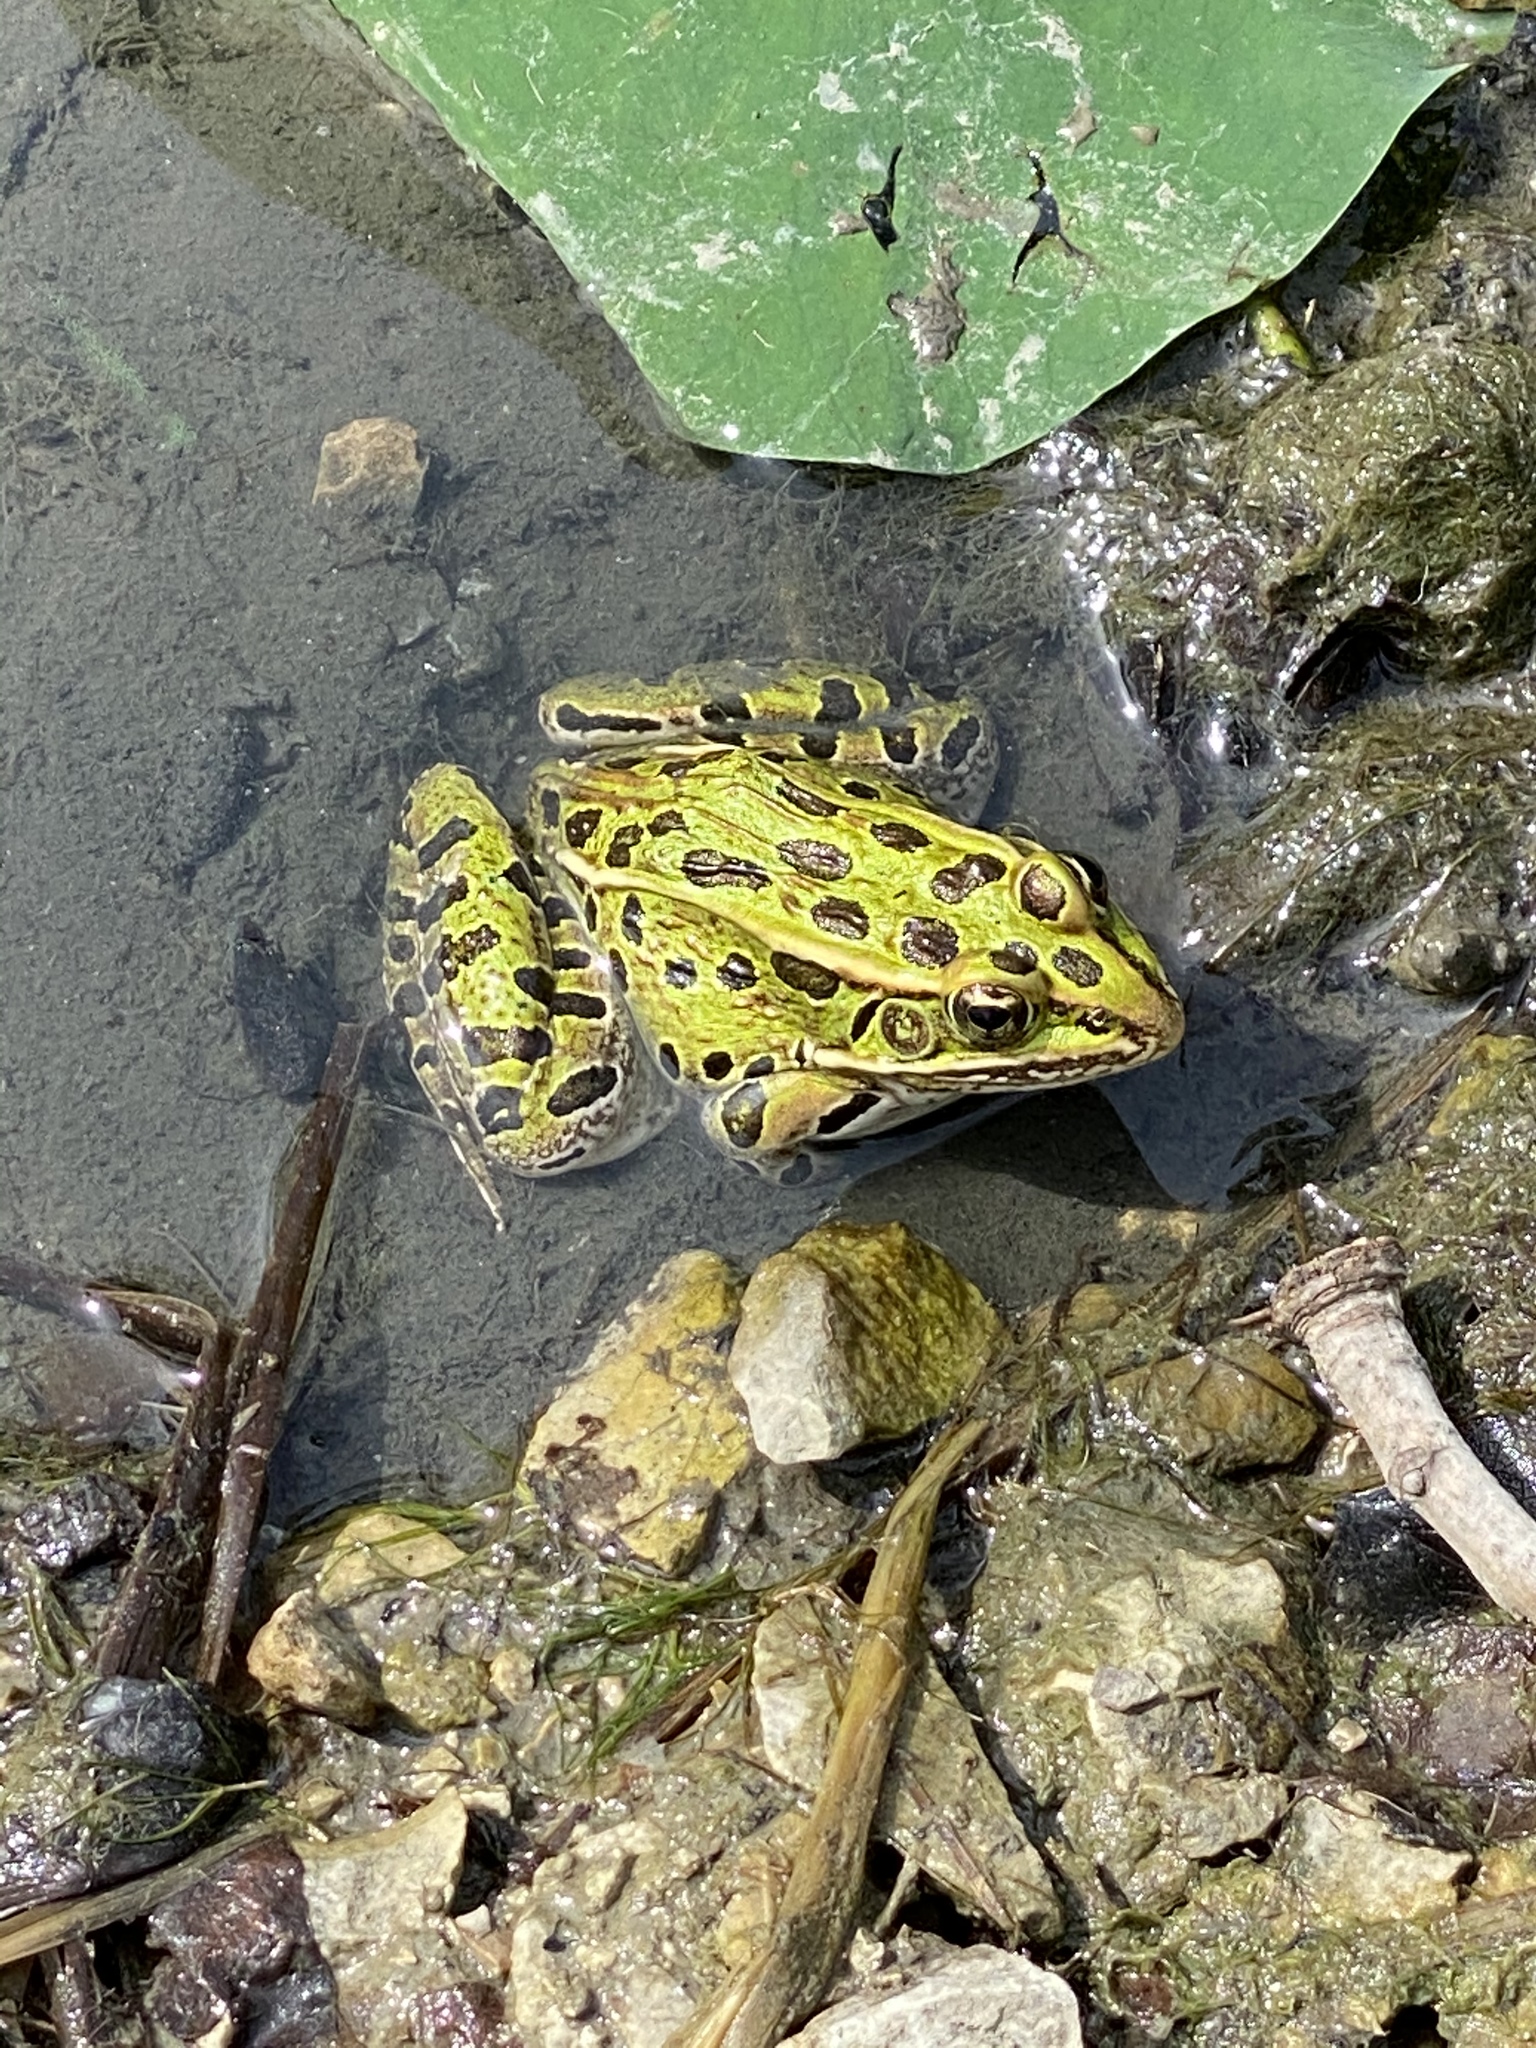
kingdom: Animalia
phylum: Chordata
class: Amphibia
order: Anura
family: Ranidae
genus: Lithobates
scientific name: Lithobates pipiens
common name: Northern leopard frog
